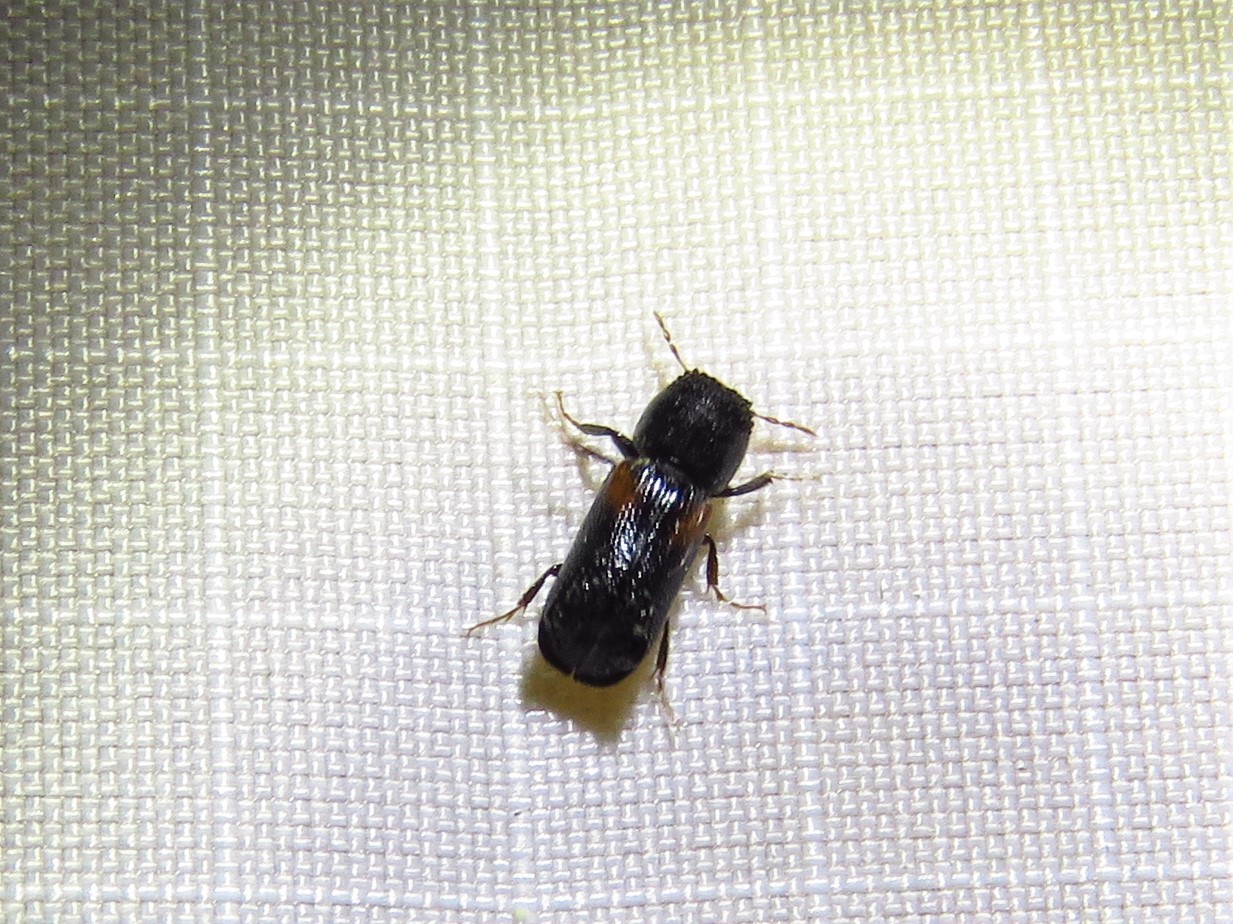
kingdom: Animalia
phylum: Arthropoda
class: Insecta
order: Coleoptera
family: Bostrichidae
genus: Xylobiops
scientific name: Xylobiops basilaris
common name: Red-shouldered bostrichid
